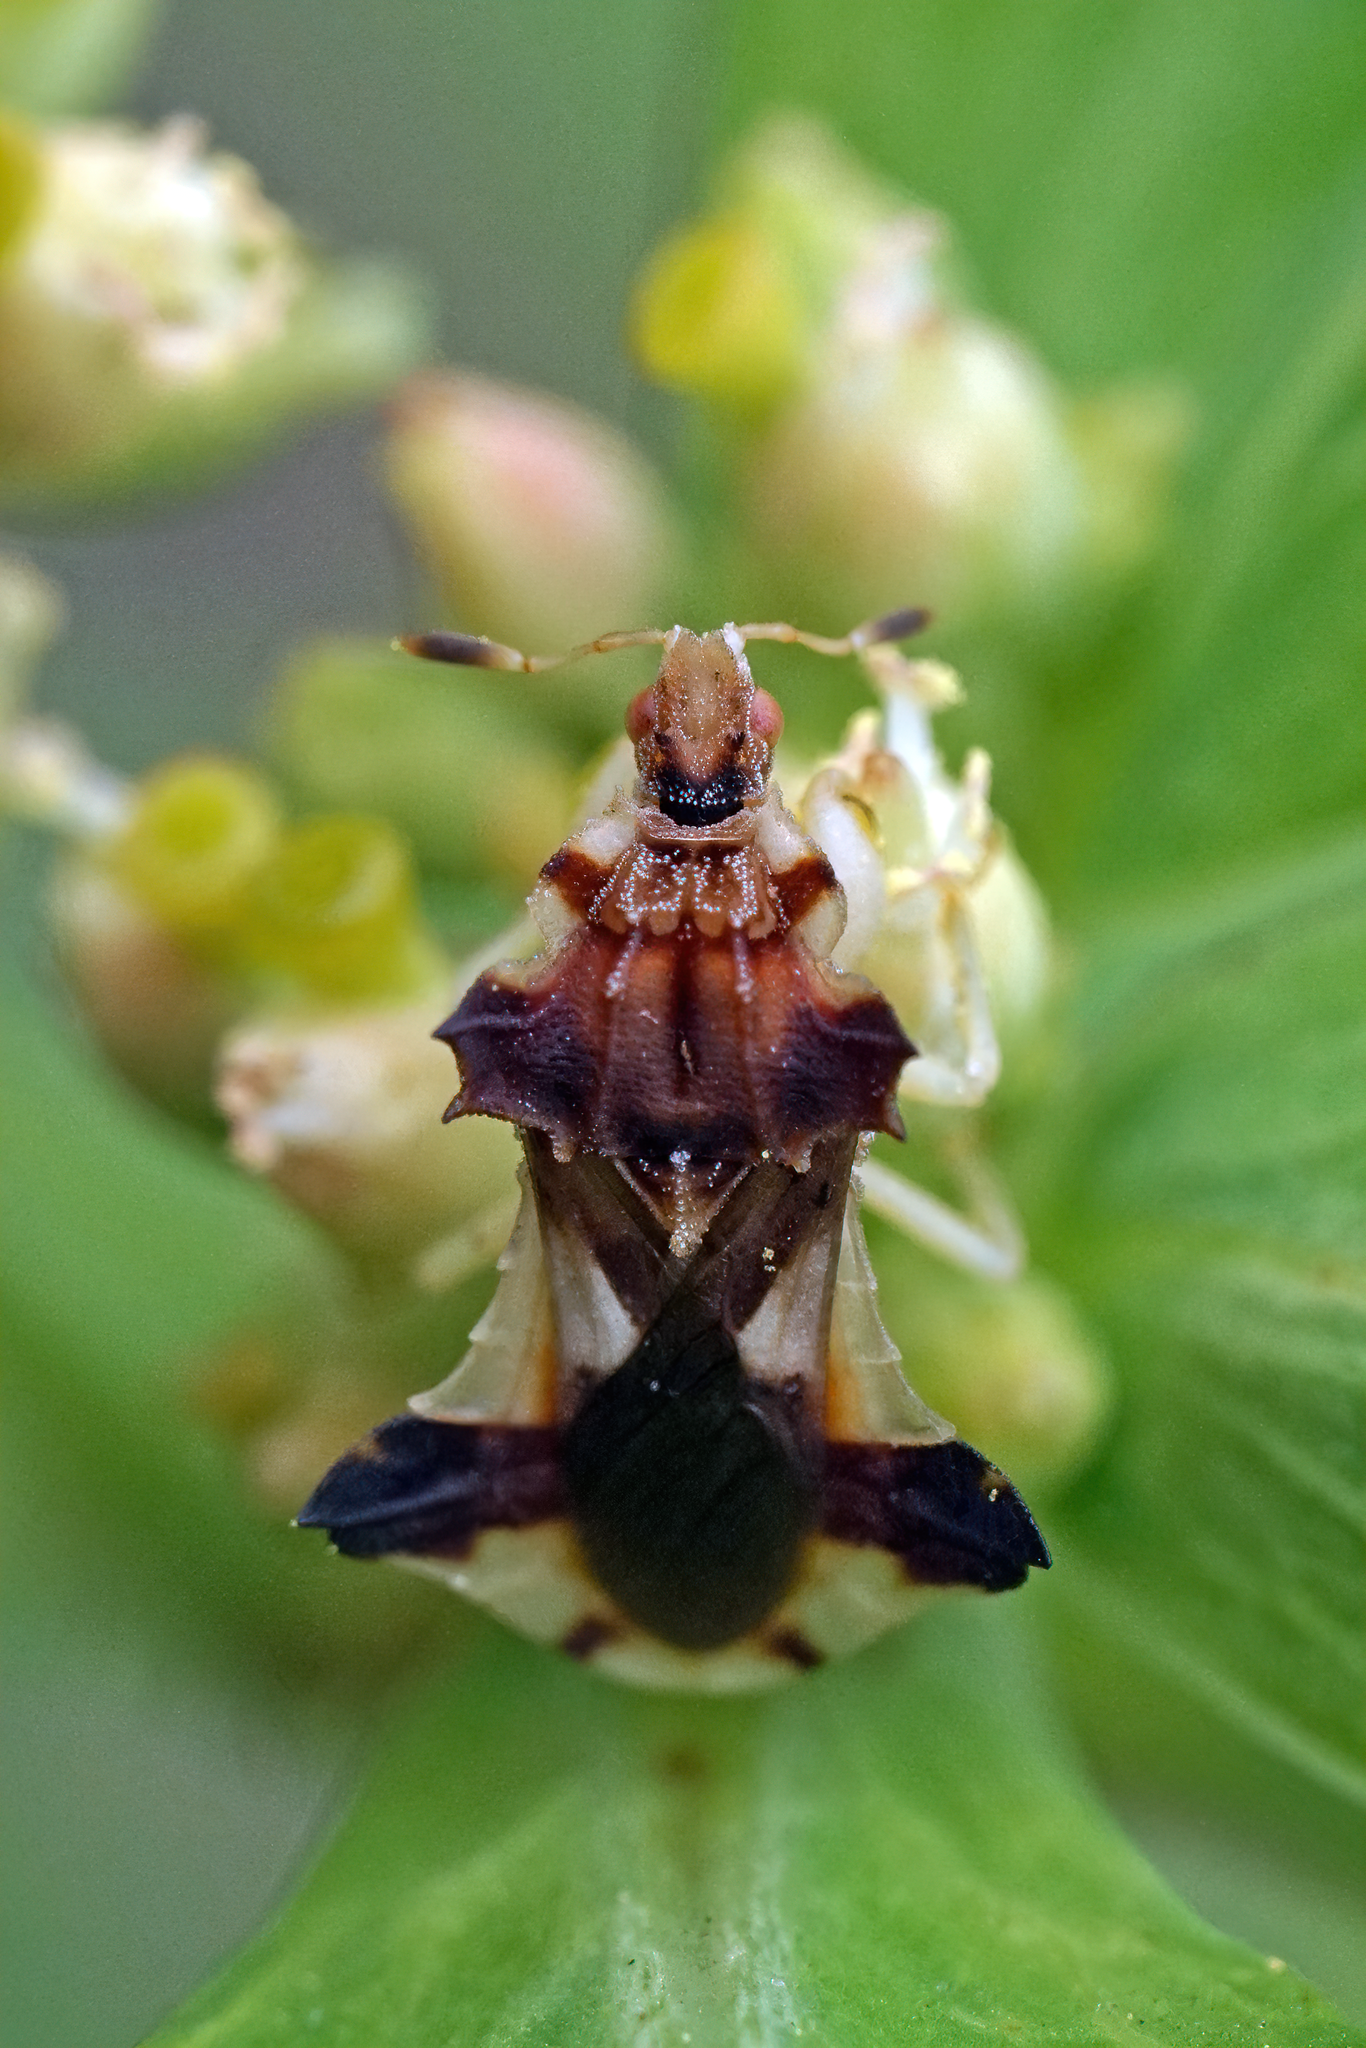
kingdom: Animalia
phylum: Arthropoda
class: Insecta
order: Hemiptera
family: Reduviidae
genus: Phymata
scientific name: Phymata
